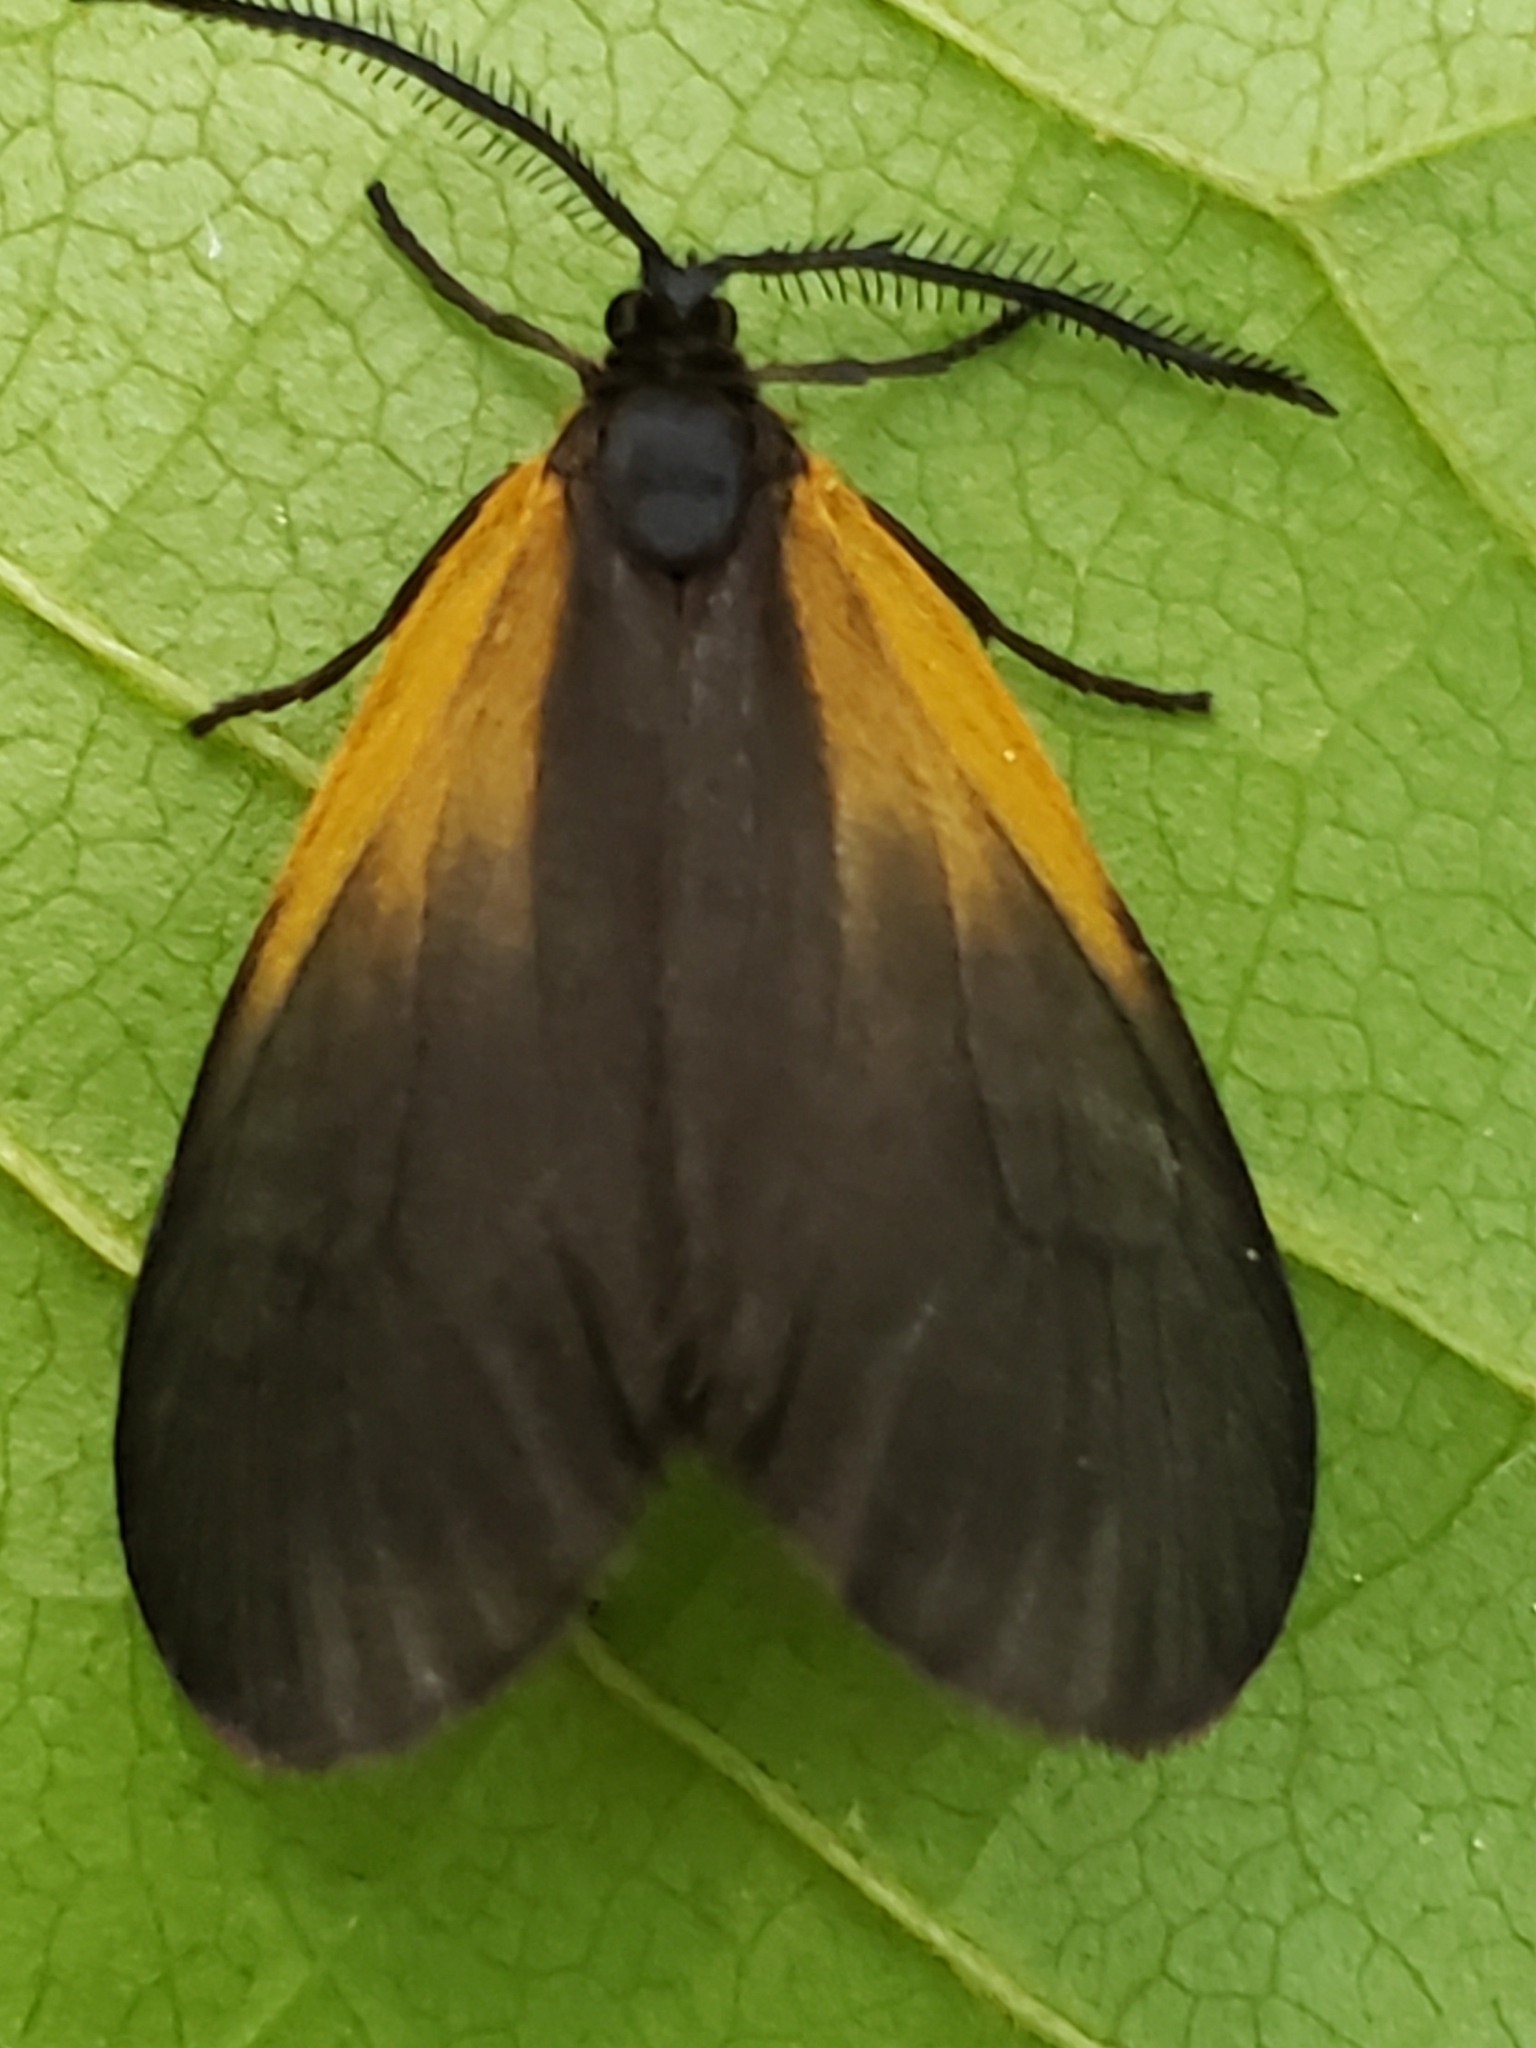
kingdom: Animalia
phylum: Arthropoda
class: Insecta
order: Lepidoptera
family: Zygaenidae
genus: Malthaca
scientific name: Malthaca dimidiata
